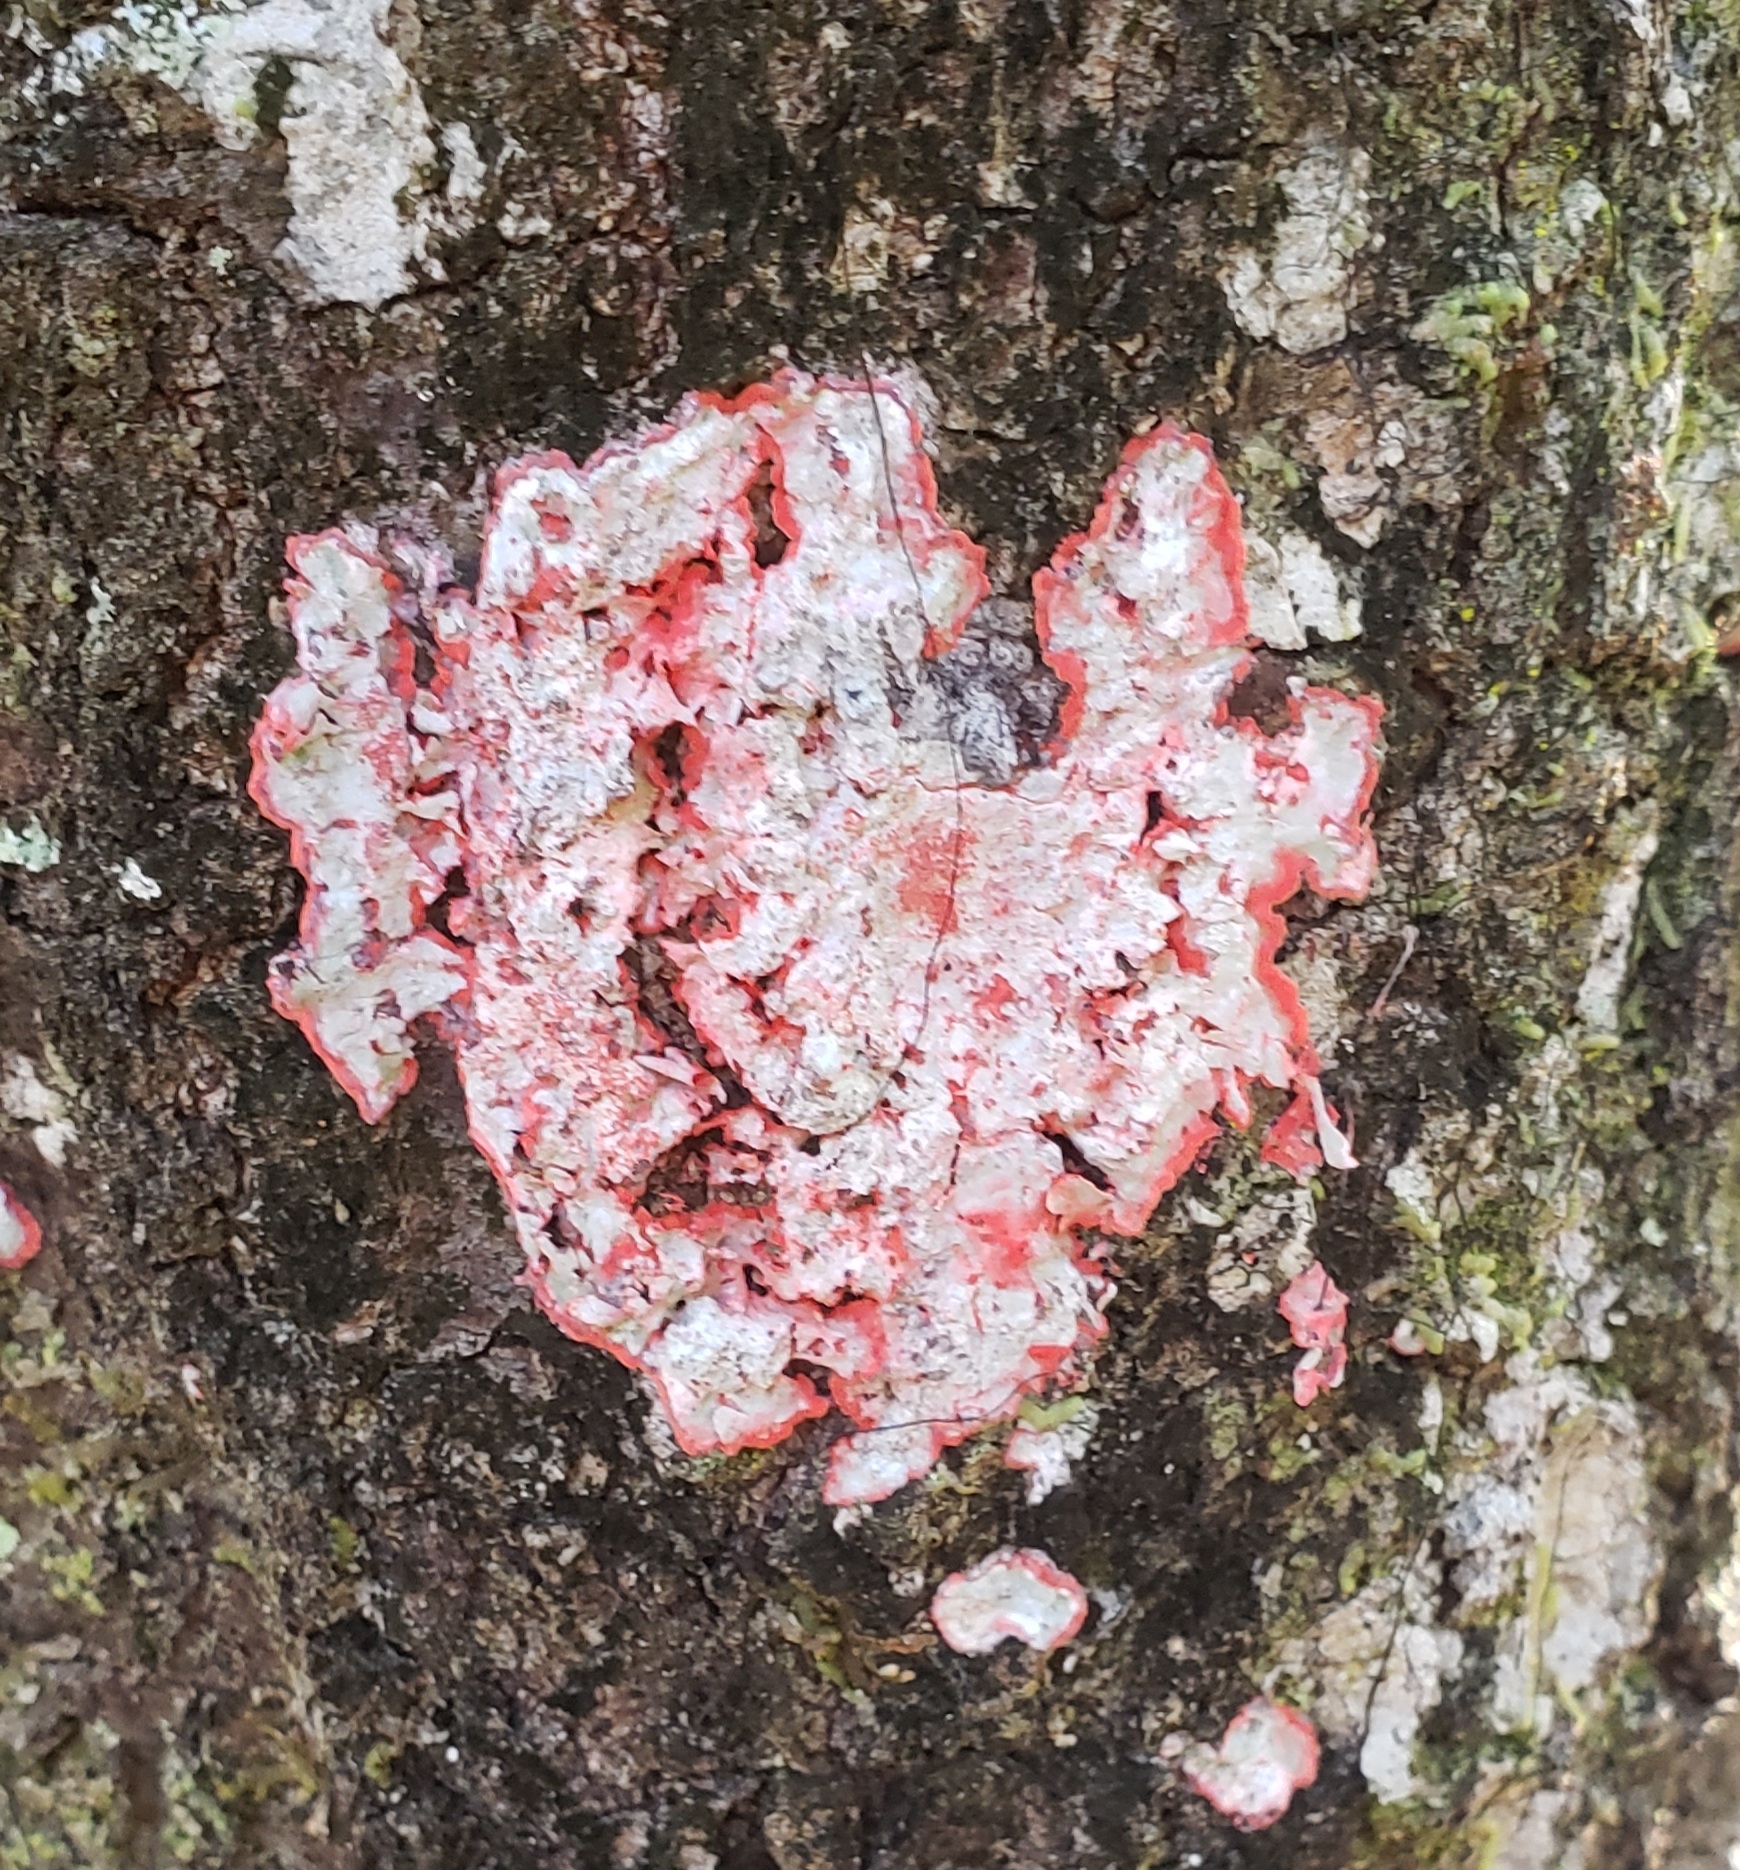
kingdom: Fungi
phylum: Ascomycota
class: Arthoniomycetes
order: Arthoniales
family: Arthoniaceae
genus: Herpothallon
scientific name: Herpothallon rubrocinctum
